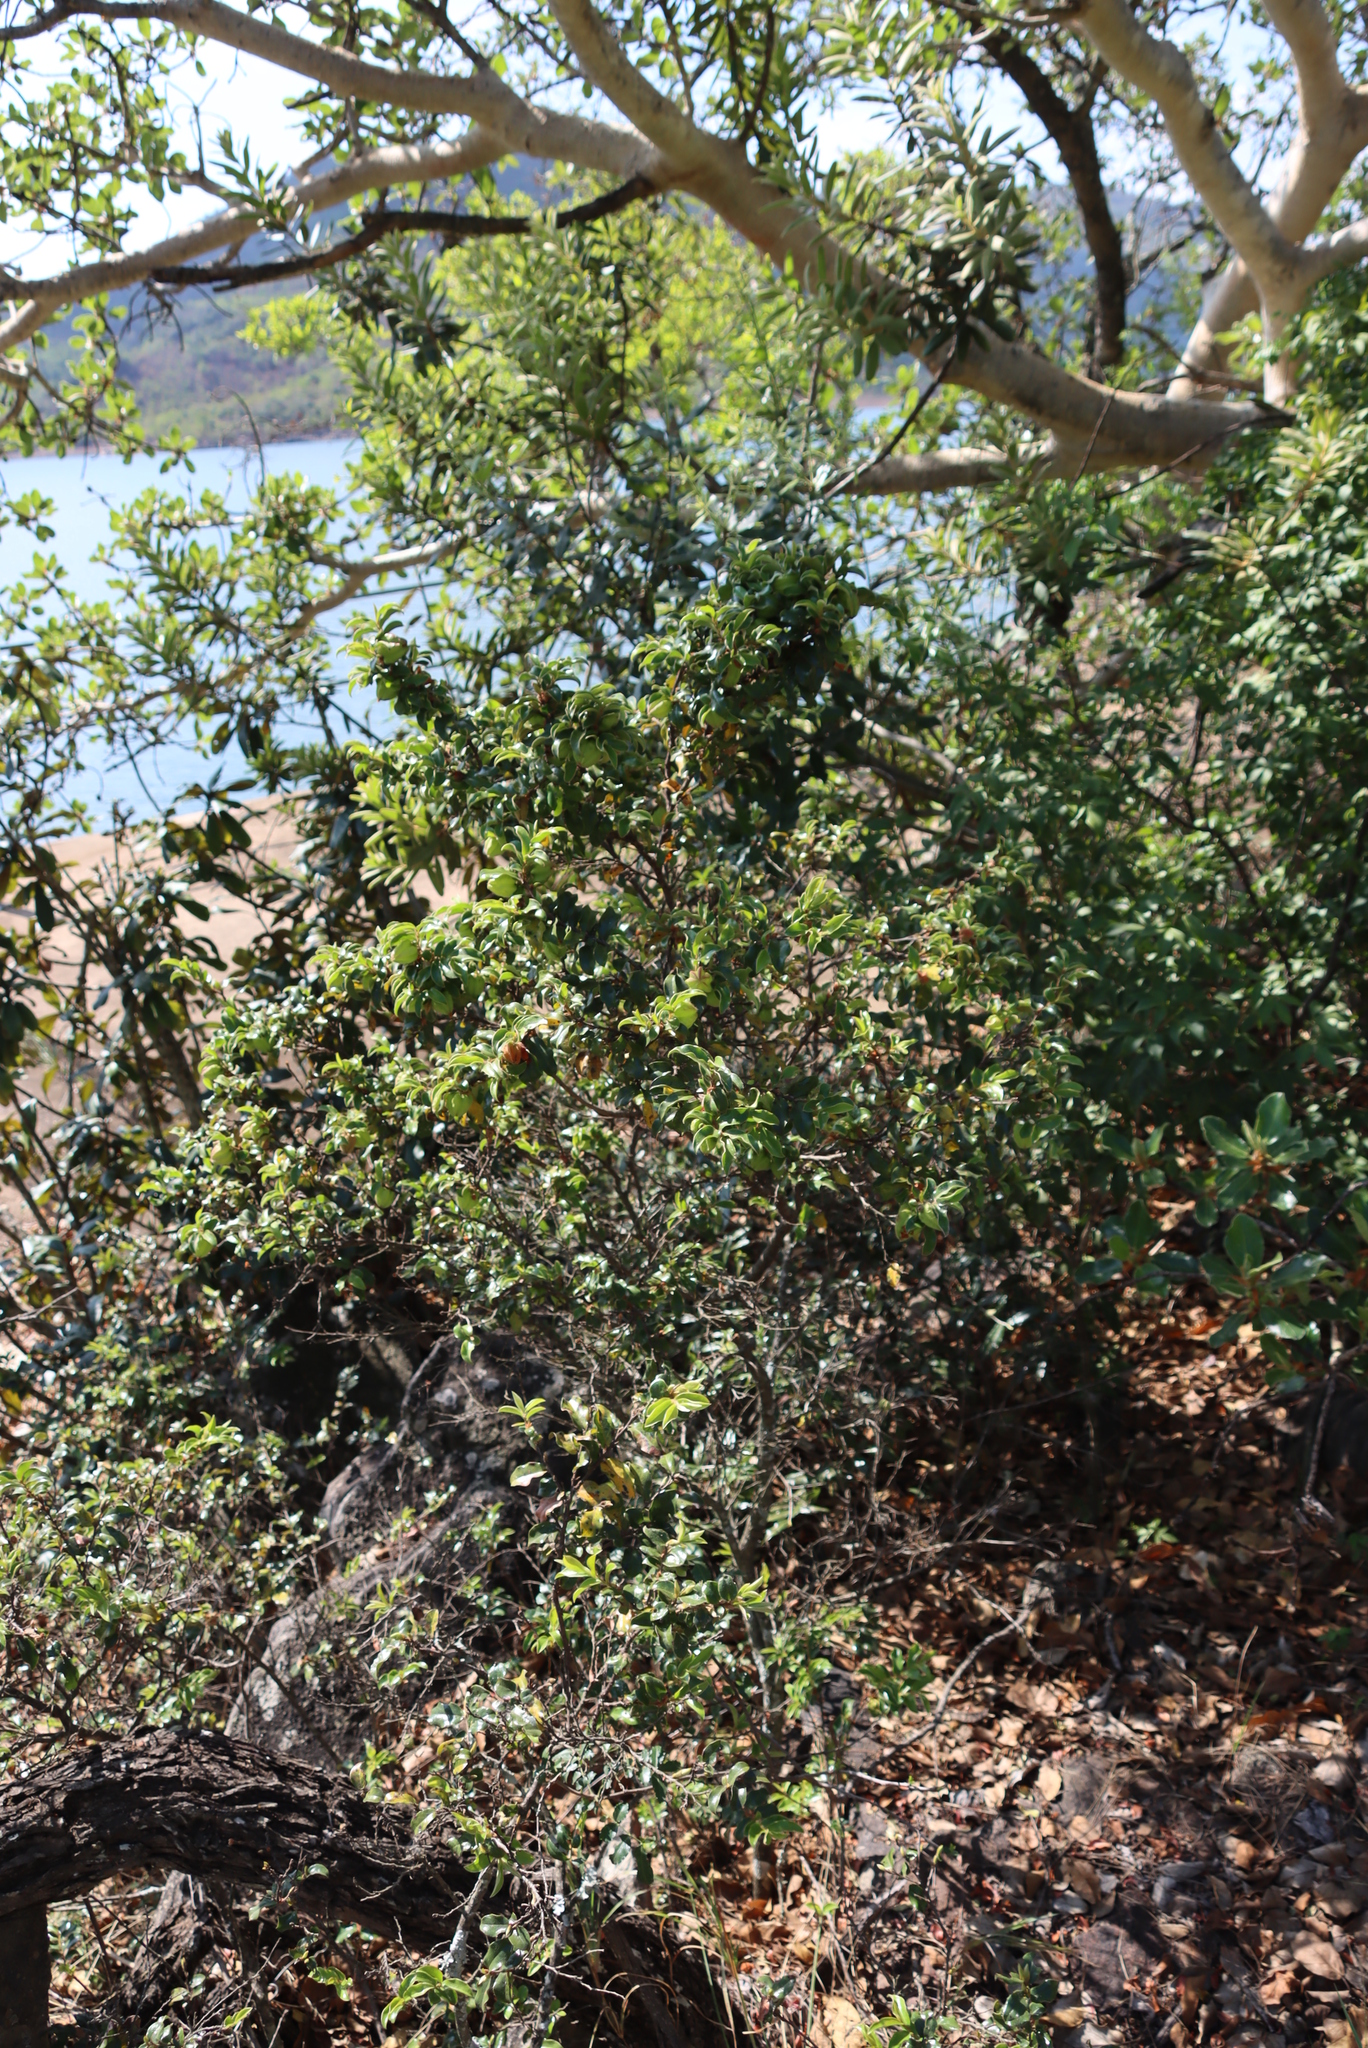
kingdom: Plantae
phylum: Tracheophyta
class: Magnoliopsida
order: Ericales
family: Ebenaceae
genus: Diospyros
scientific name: Diospyros whyteana
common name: Bladder-nut
